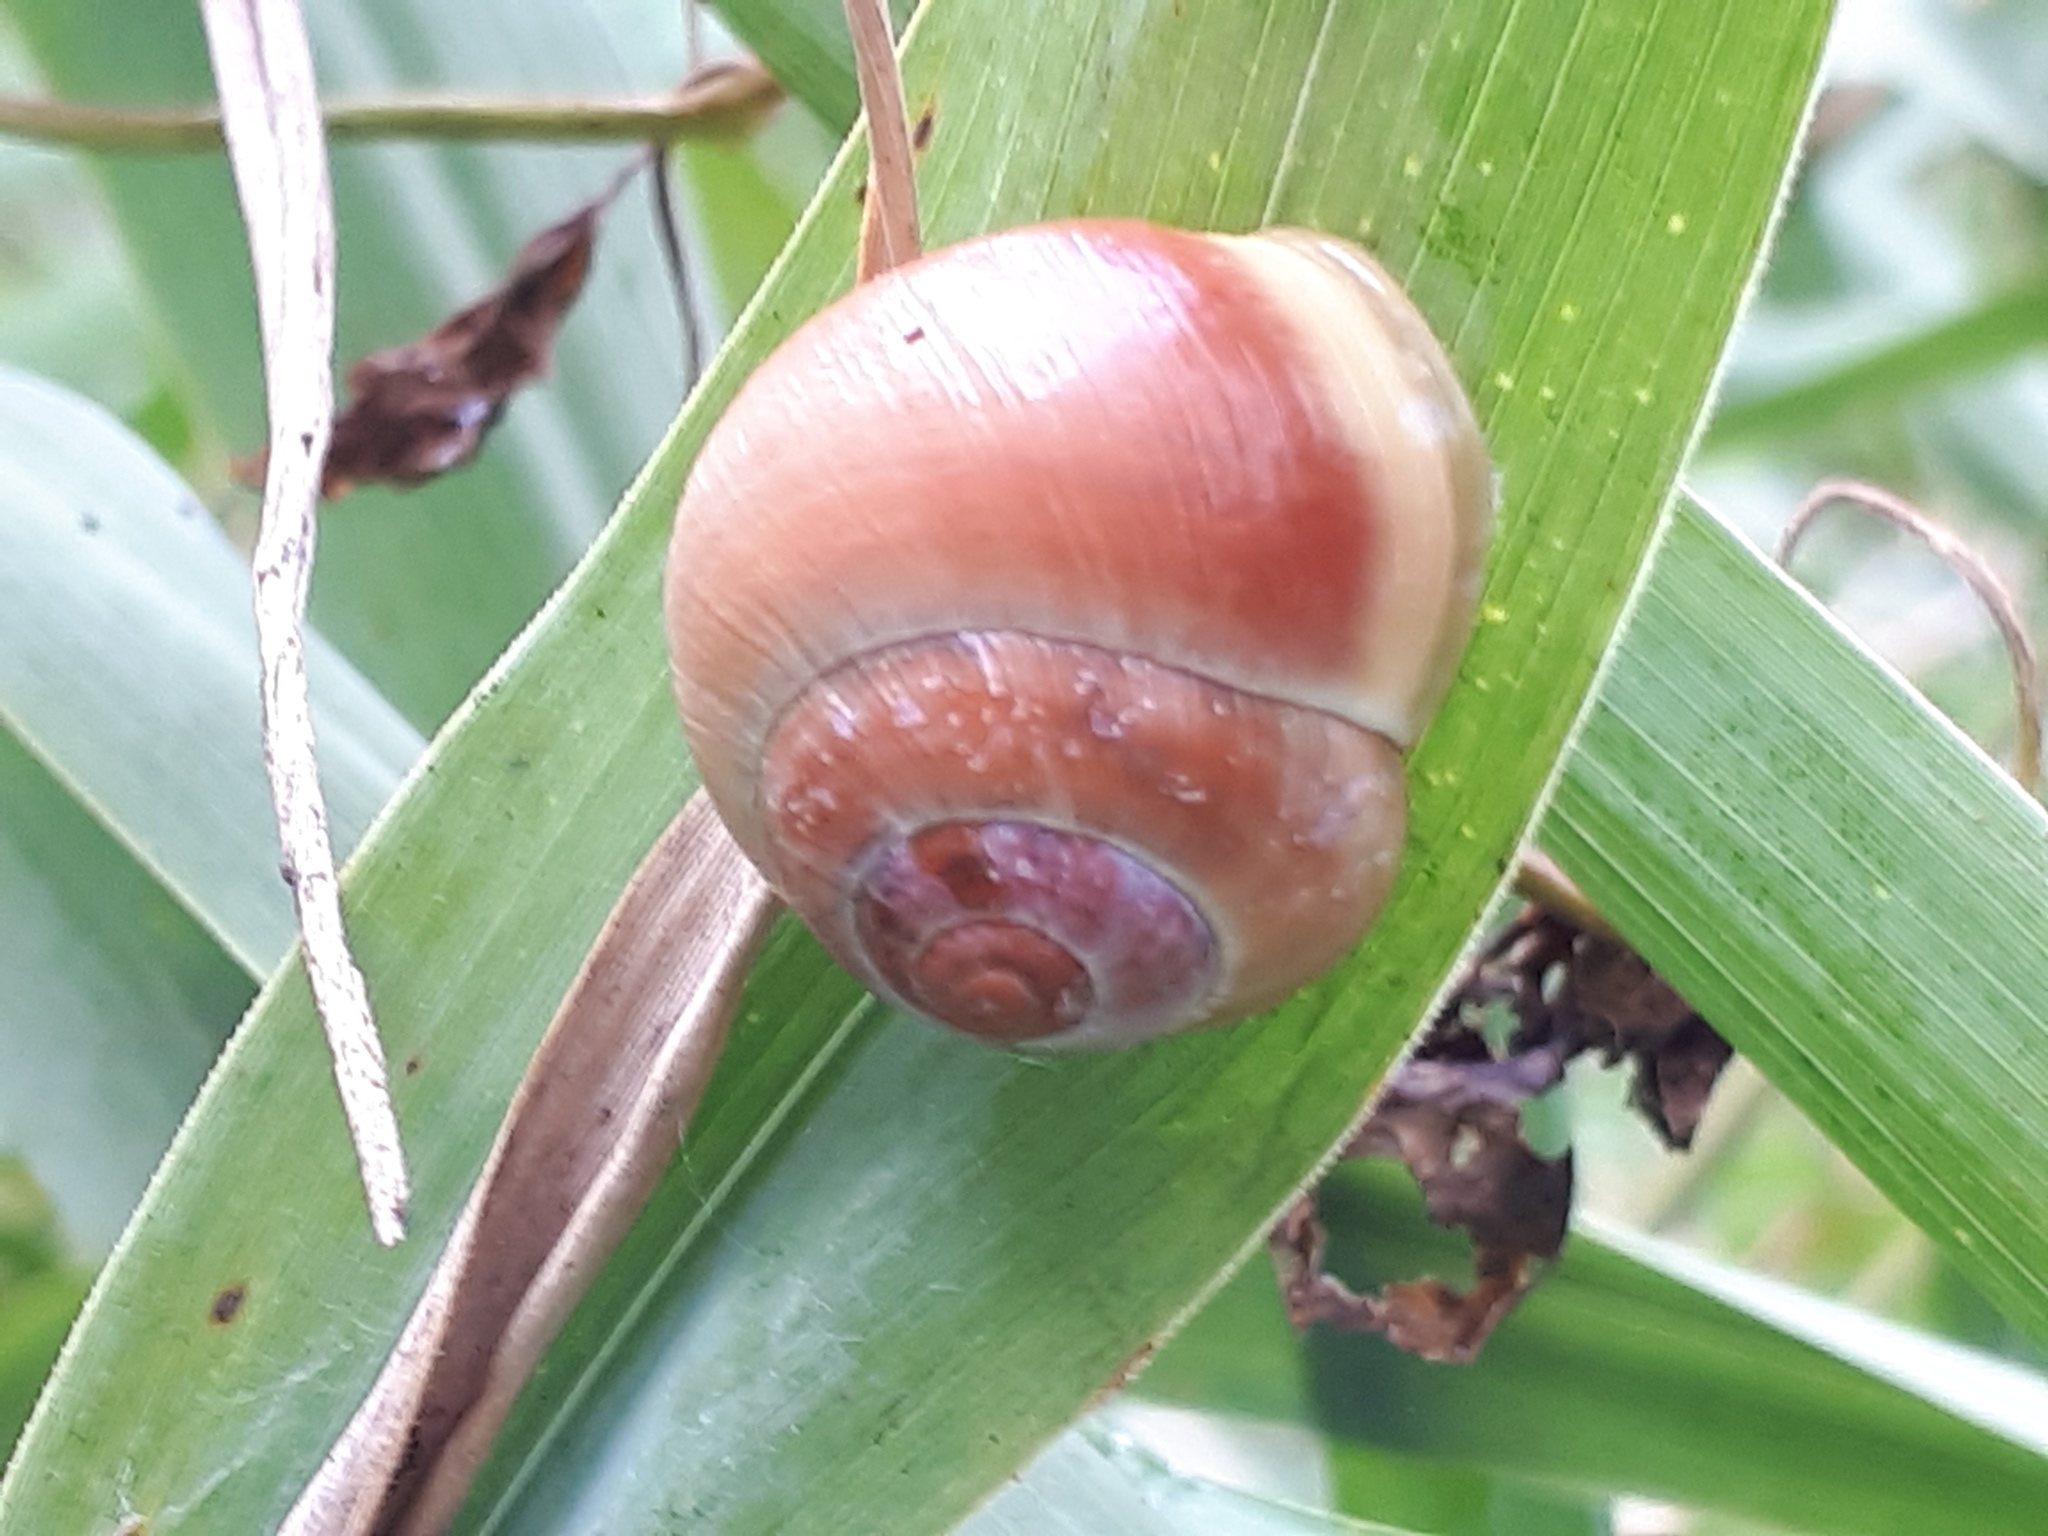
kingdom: Animalia
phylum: Mollusca
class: Gastropoda
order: Stylommatophora
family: Helicidae
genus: Cepaea
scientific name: Cepaea hortensis
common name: White-lip gardensnail
